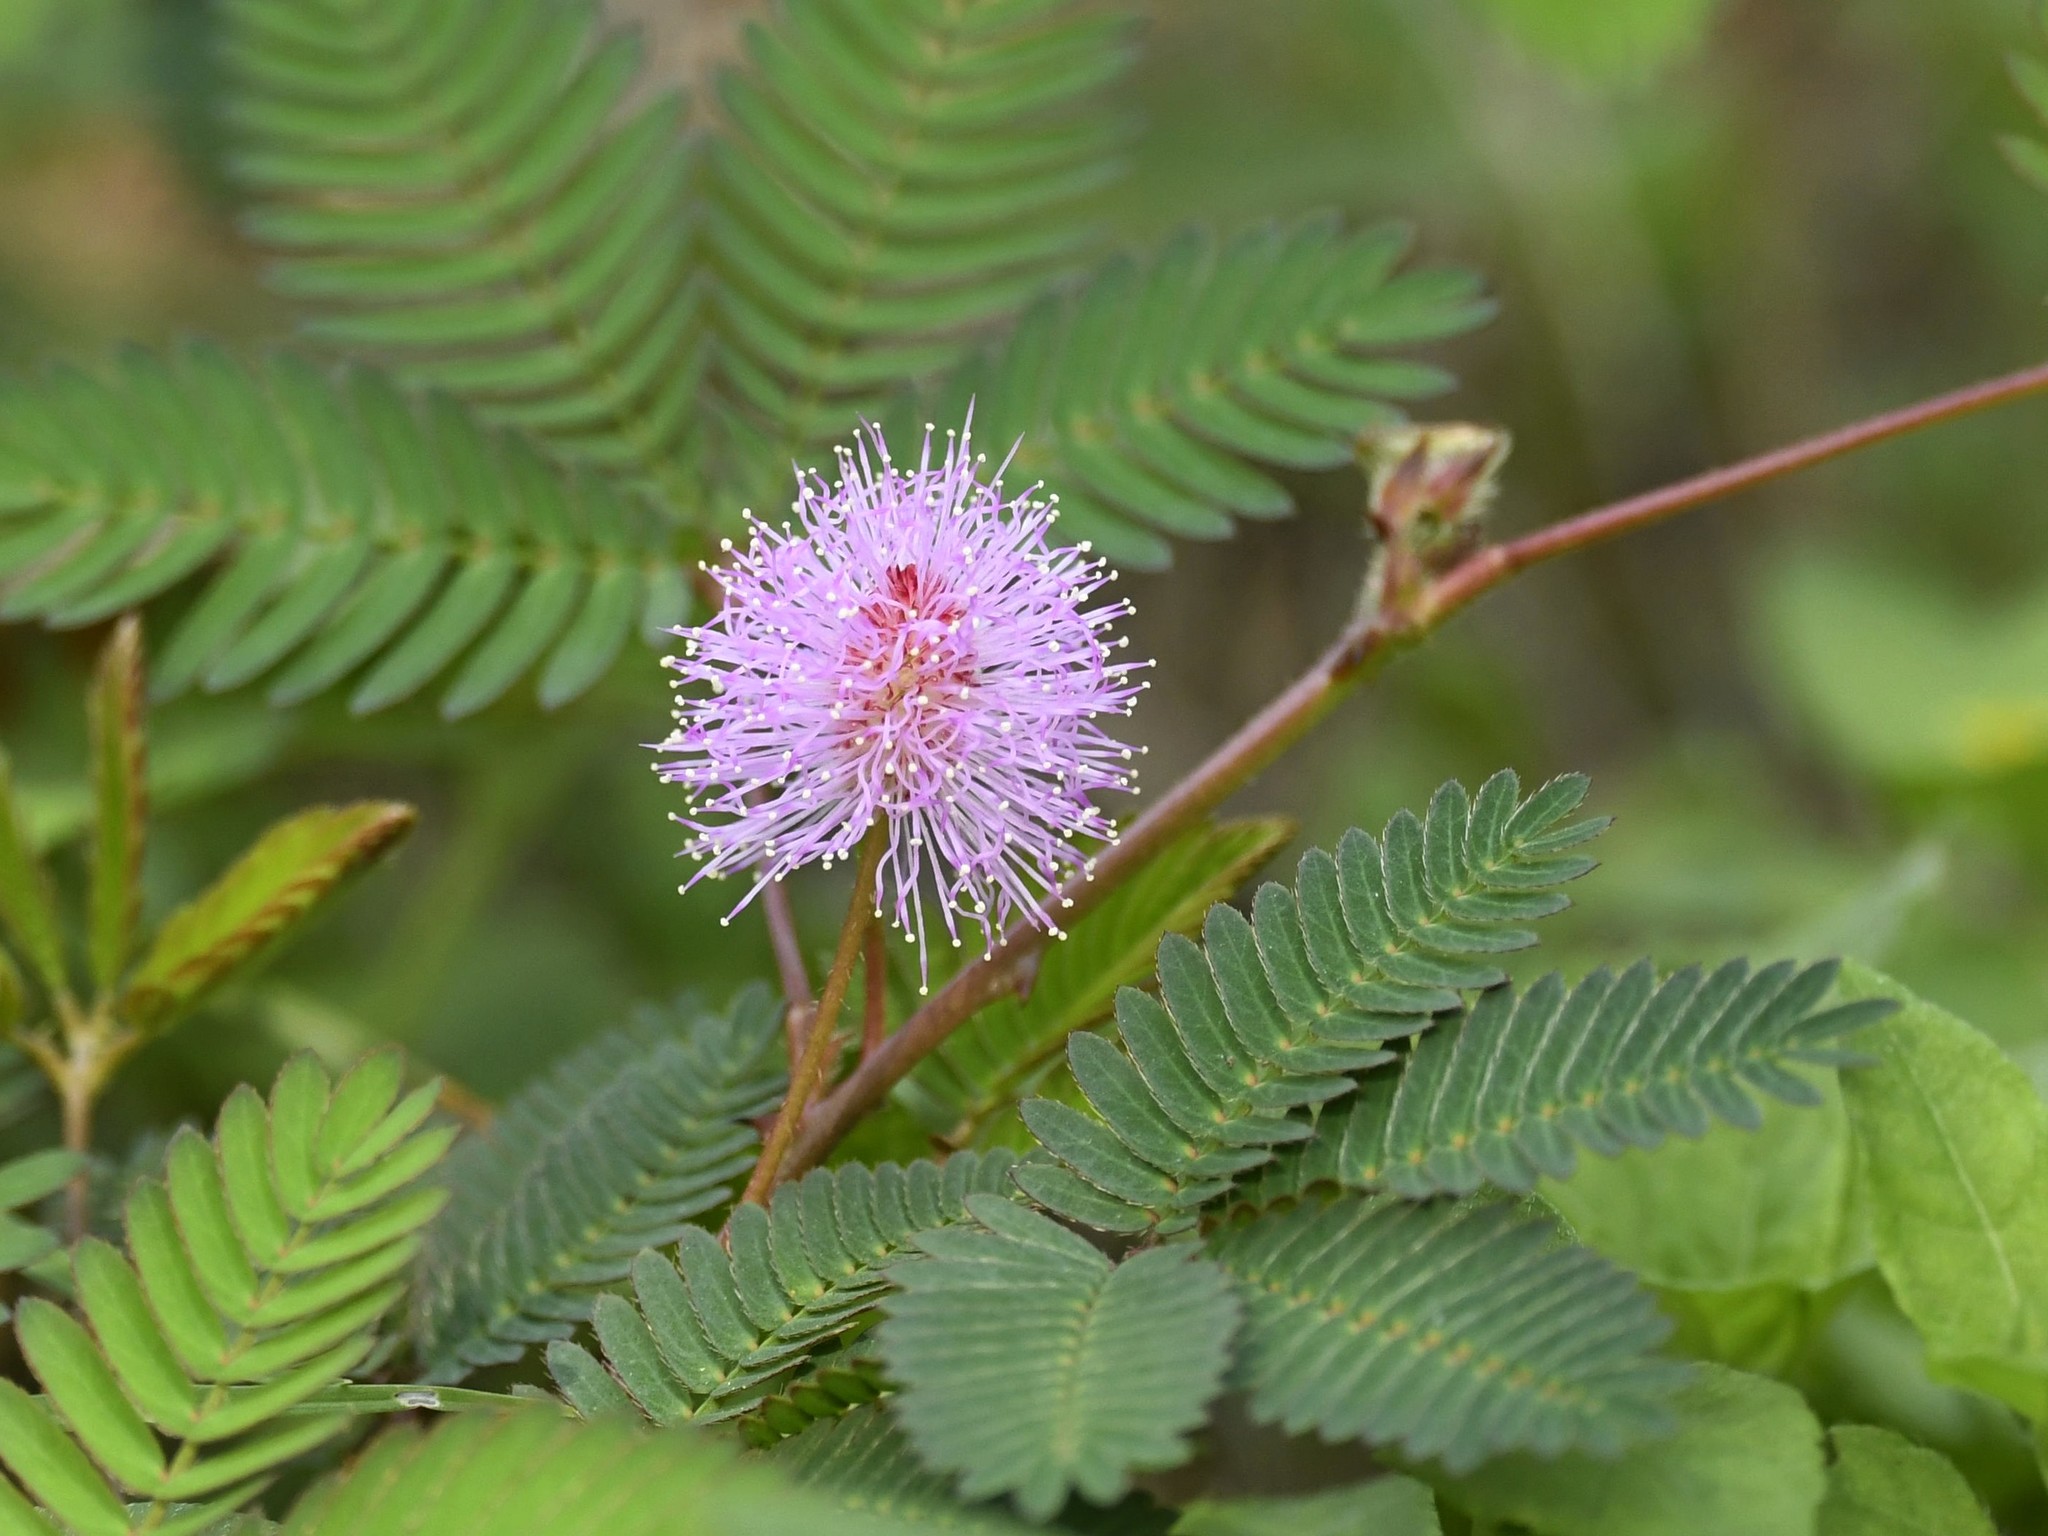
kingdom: Plantae
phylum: Tracheophyta
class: Magnoliopsida
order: Fabales
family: Fabaceae
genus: Mimosa
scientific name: Mimosa pudica
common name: Sensitive plant
